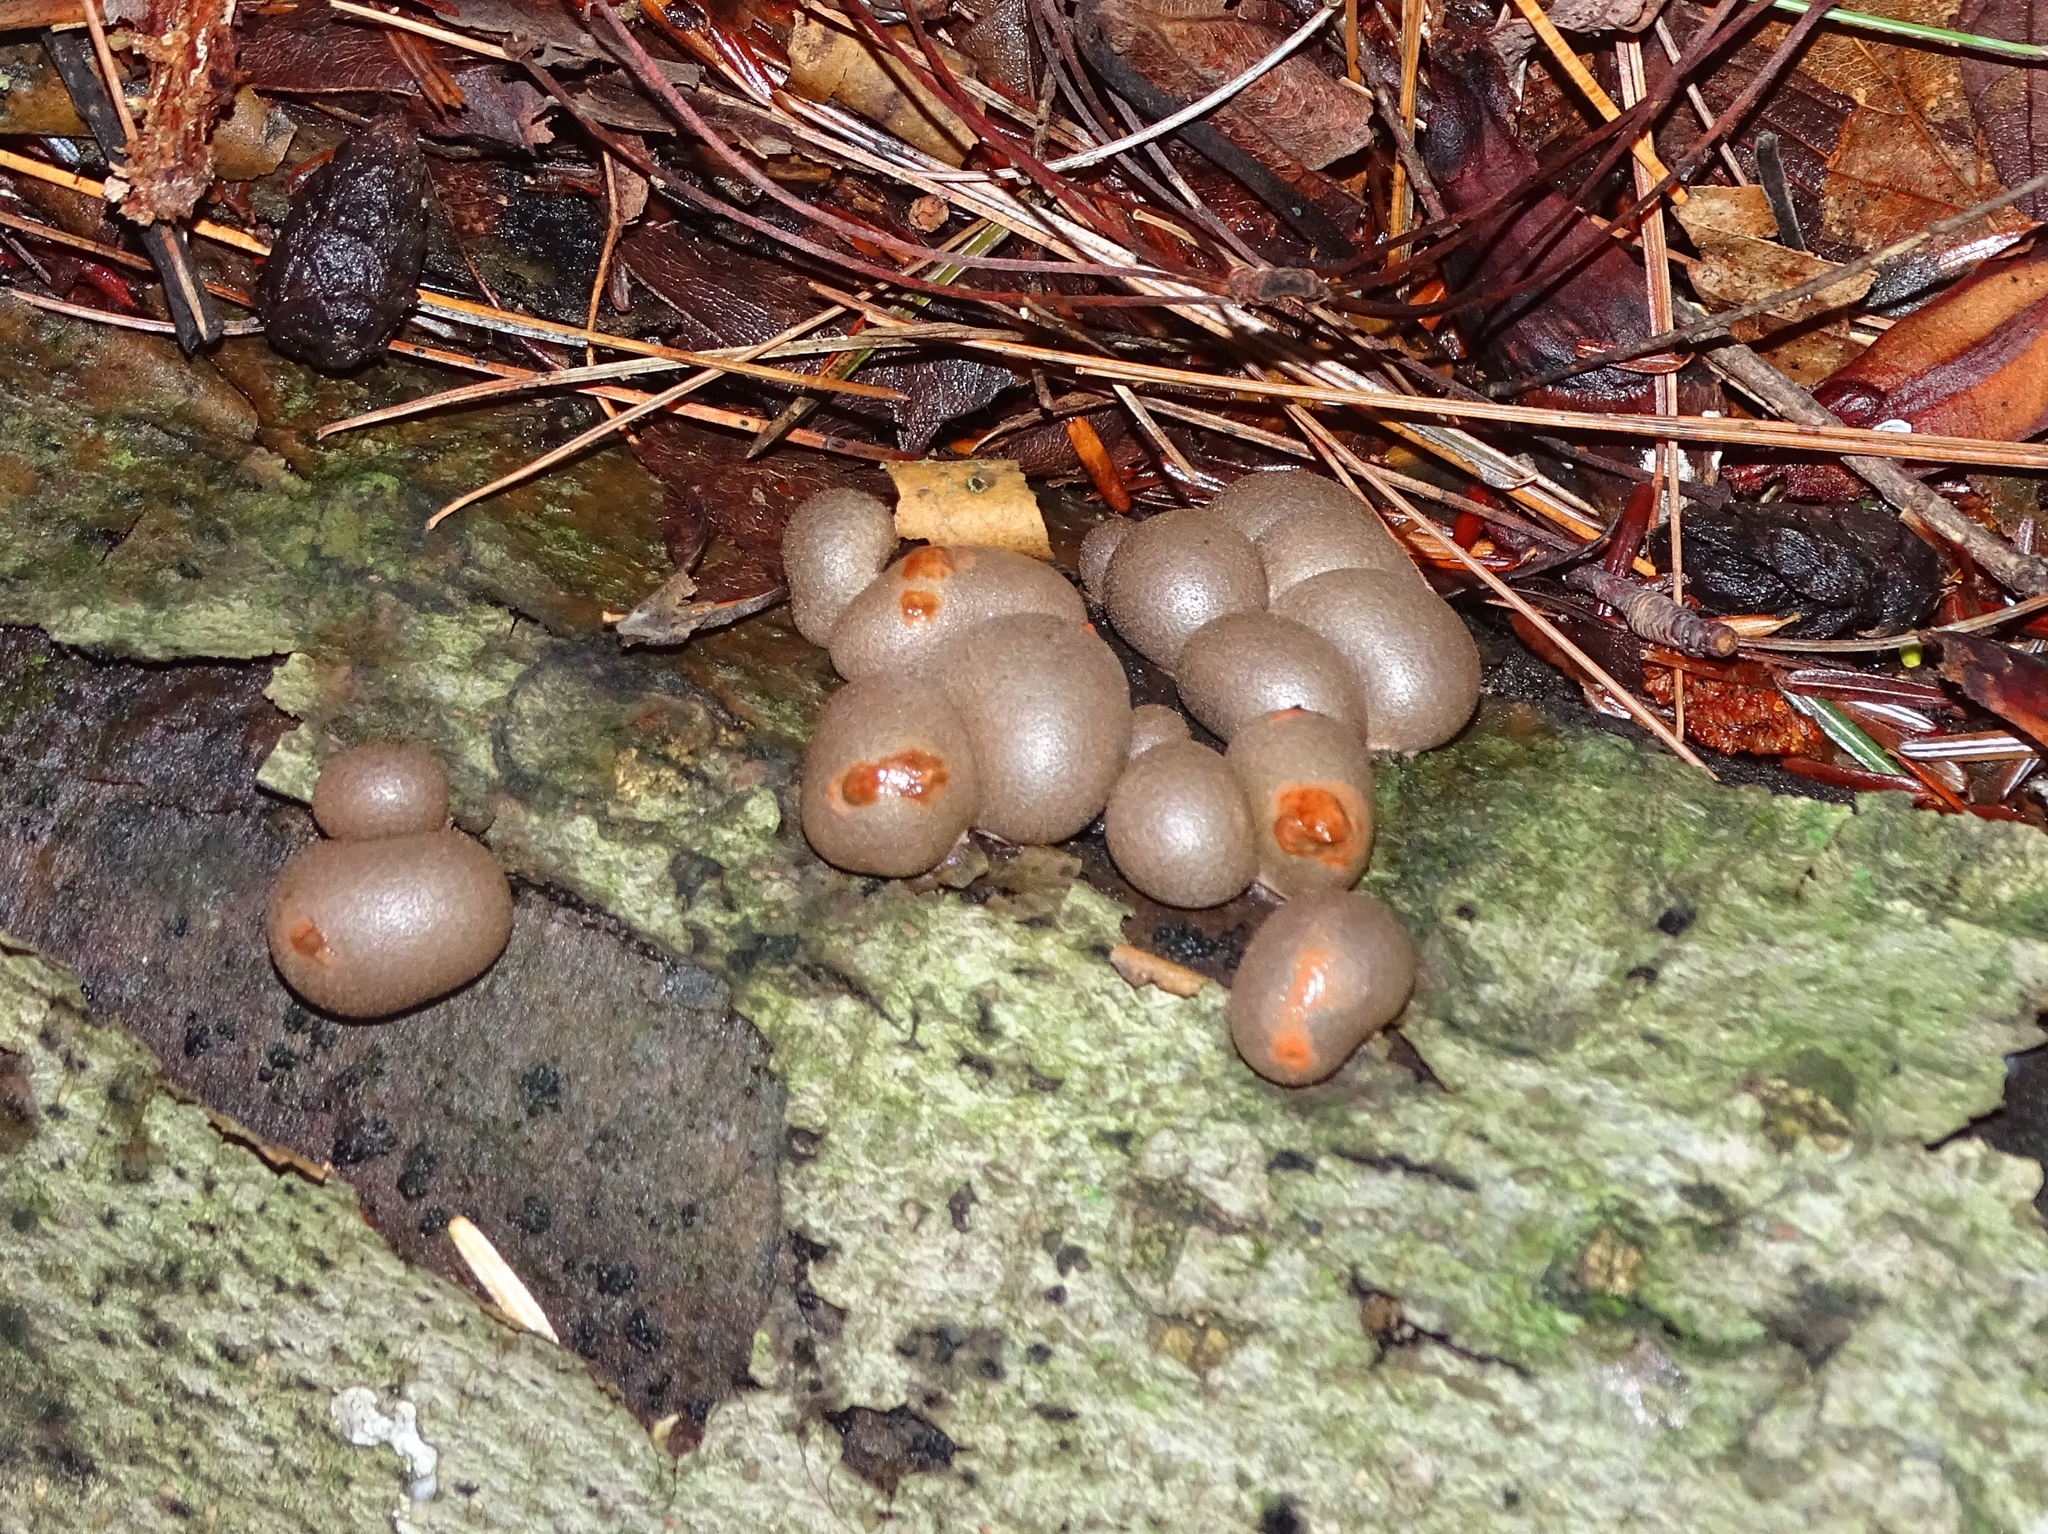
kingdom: Protozoa
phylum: Mycetozoa
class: Myxomycetes
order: Cribrariales
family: Tubiferaceae
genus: Lycogala
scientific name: Lycogala epidendrum
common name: Wolf's milk
